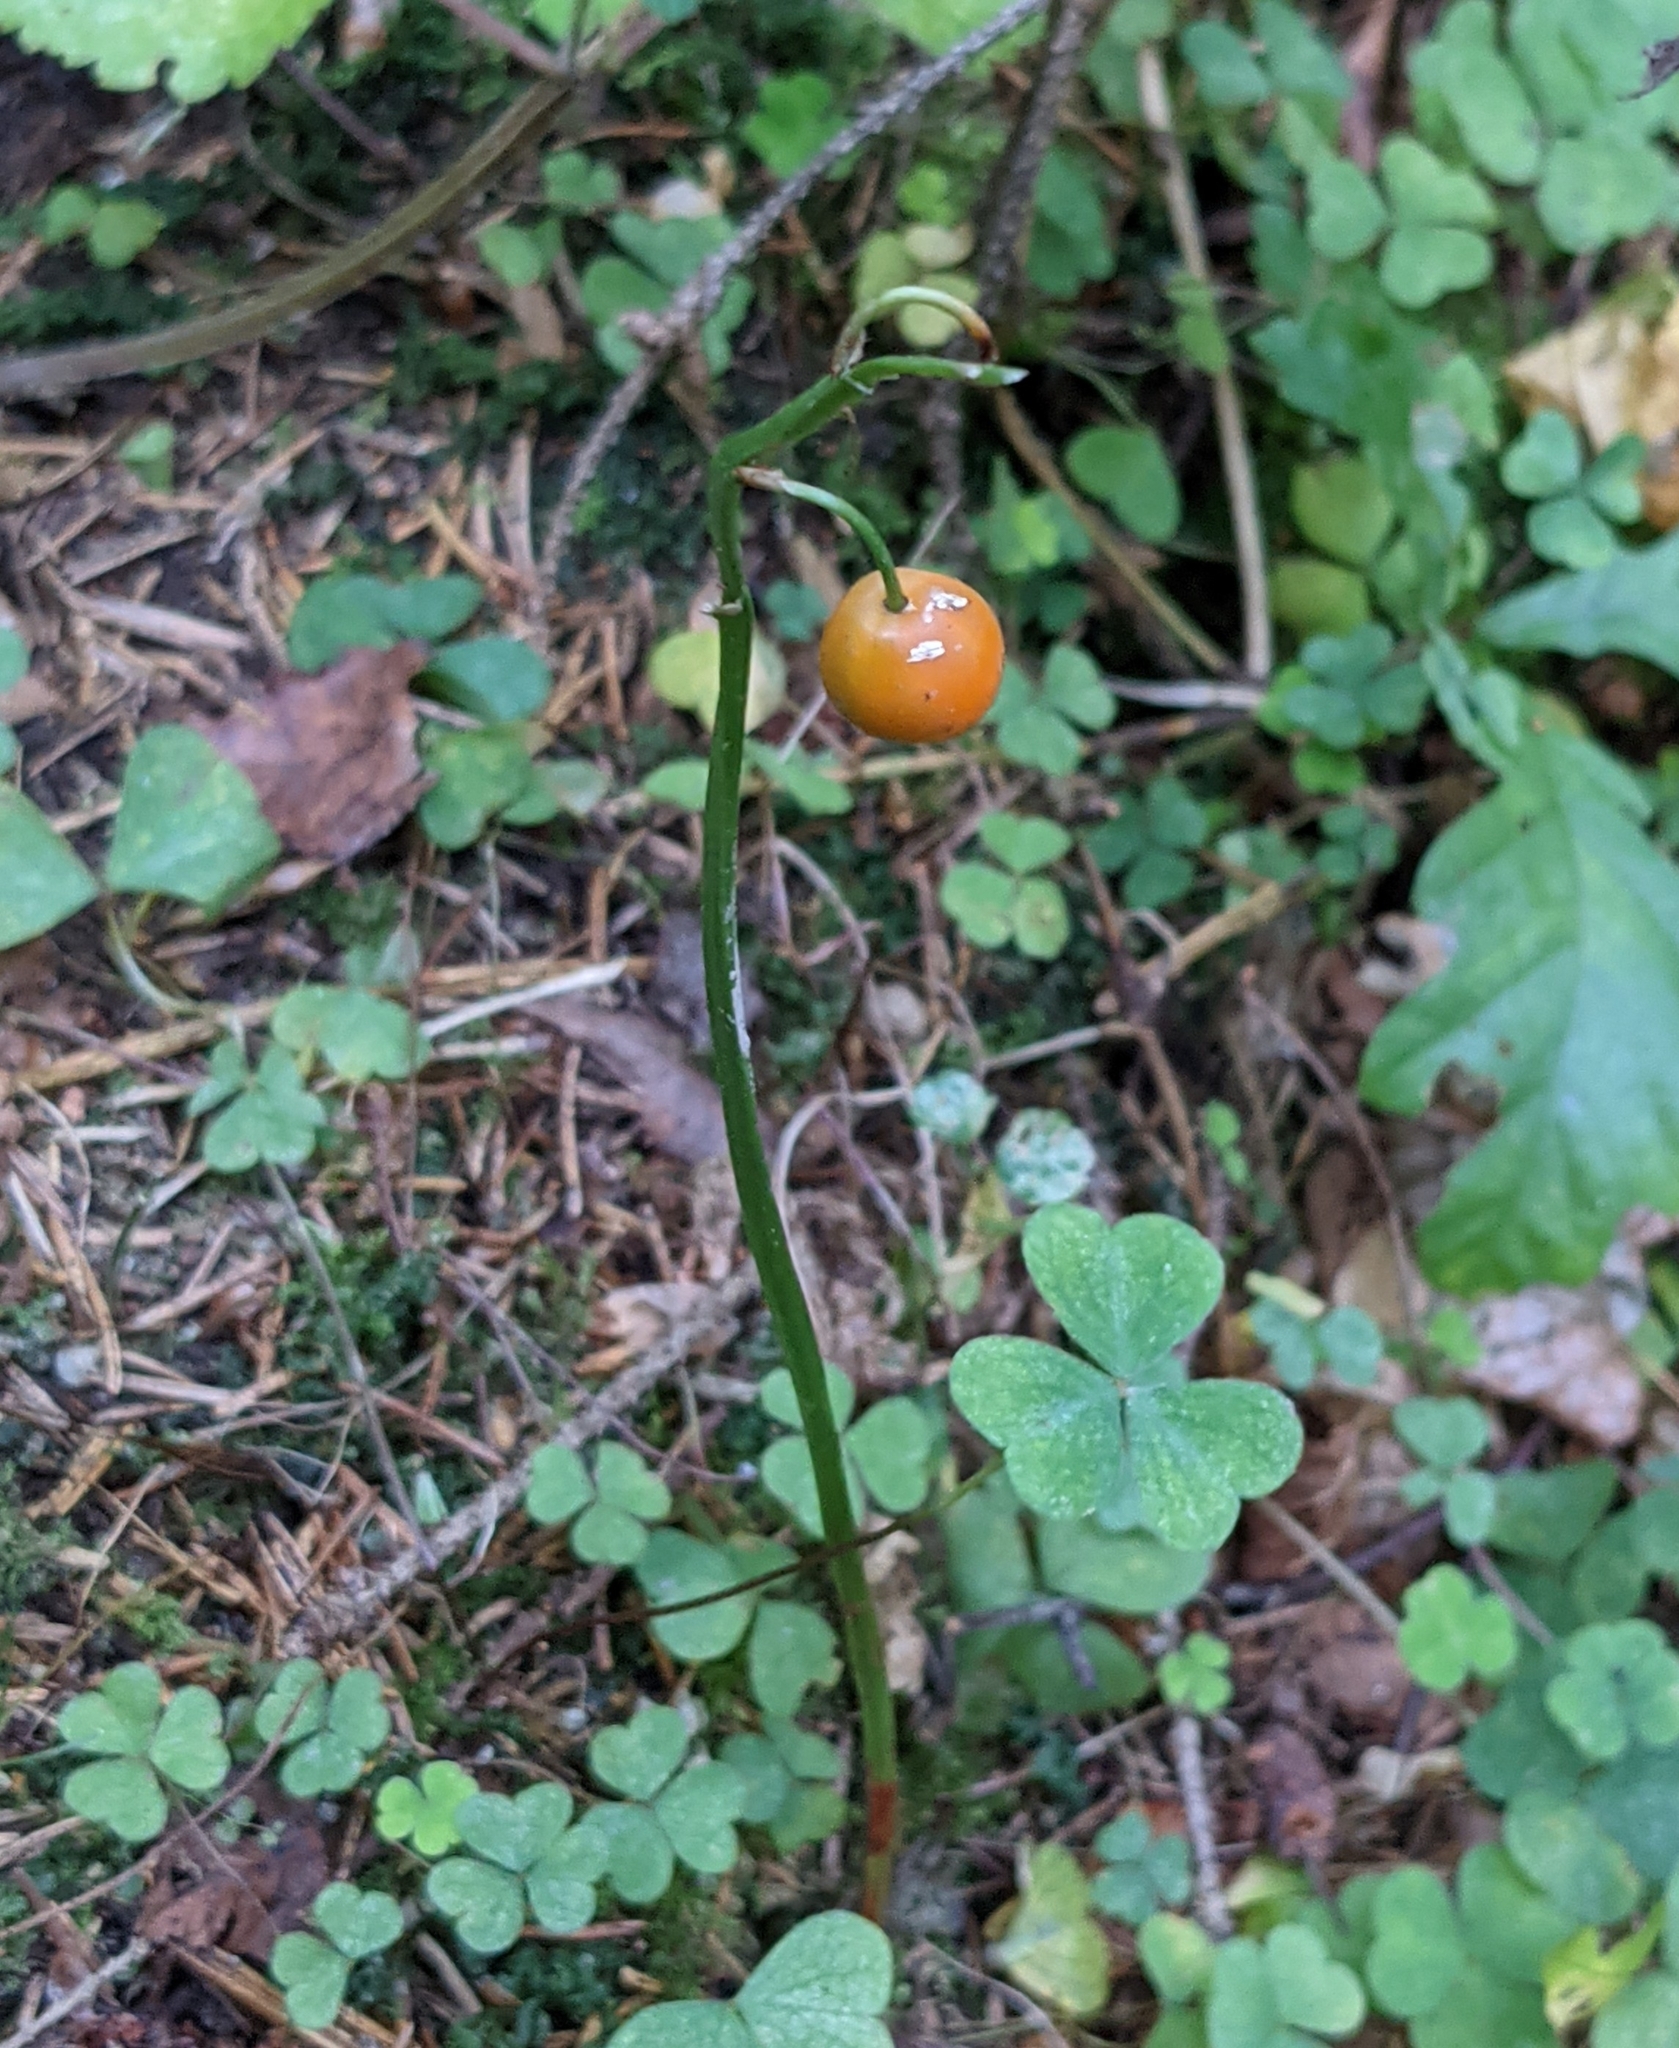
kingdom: Plantae
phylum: Tracheophyta
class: Liliopsida
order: Asparagales
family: Asparagaceae
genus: Convallaria
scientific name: Convallaria majalis
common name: Lily-of-the-valley
